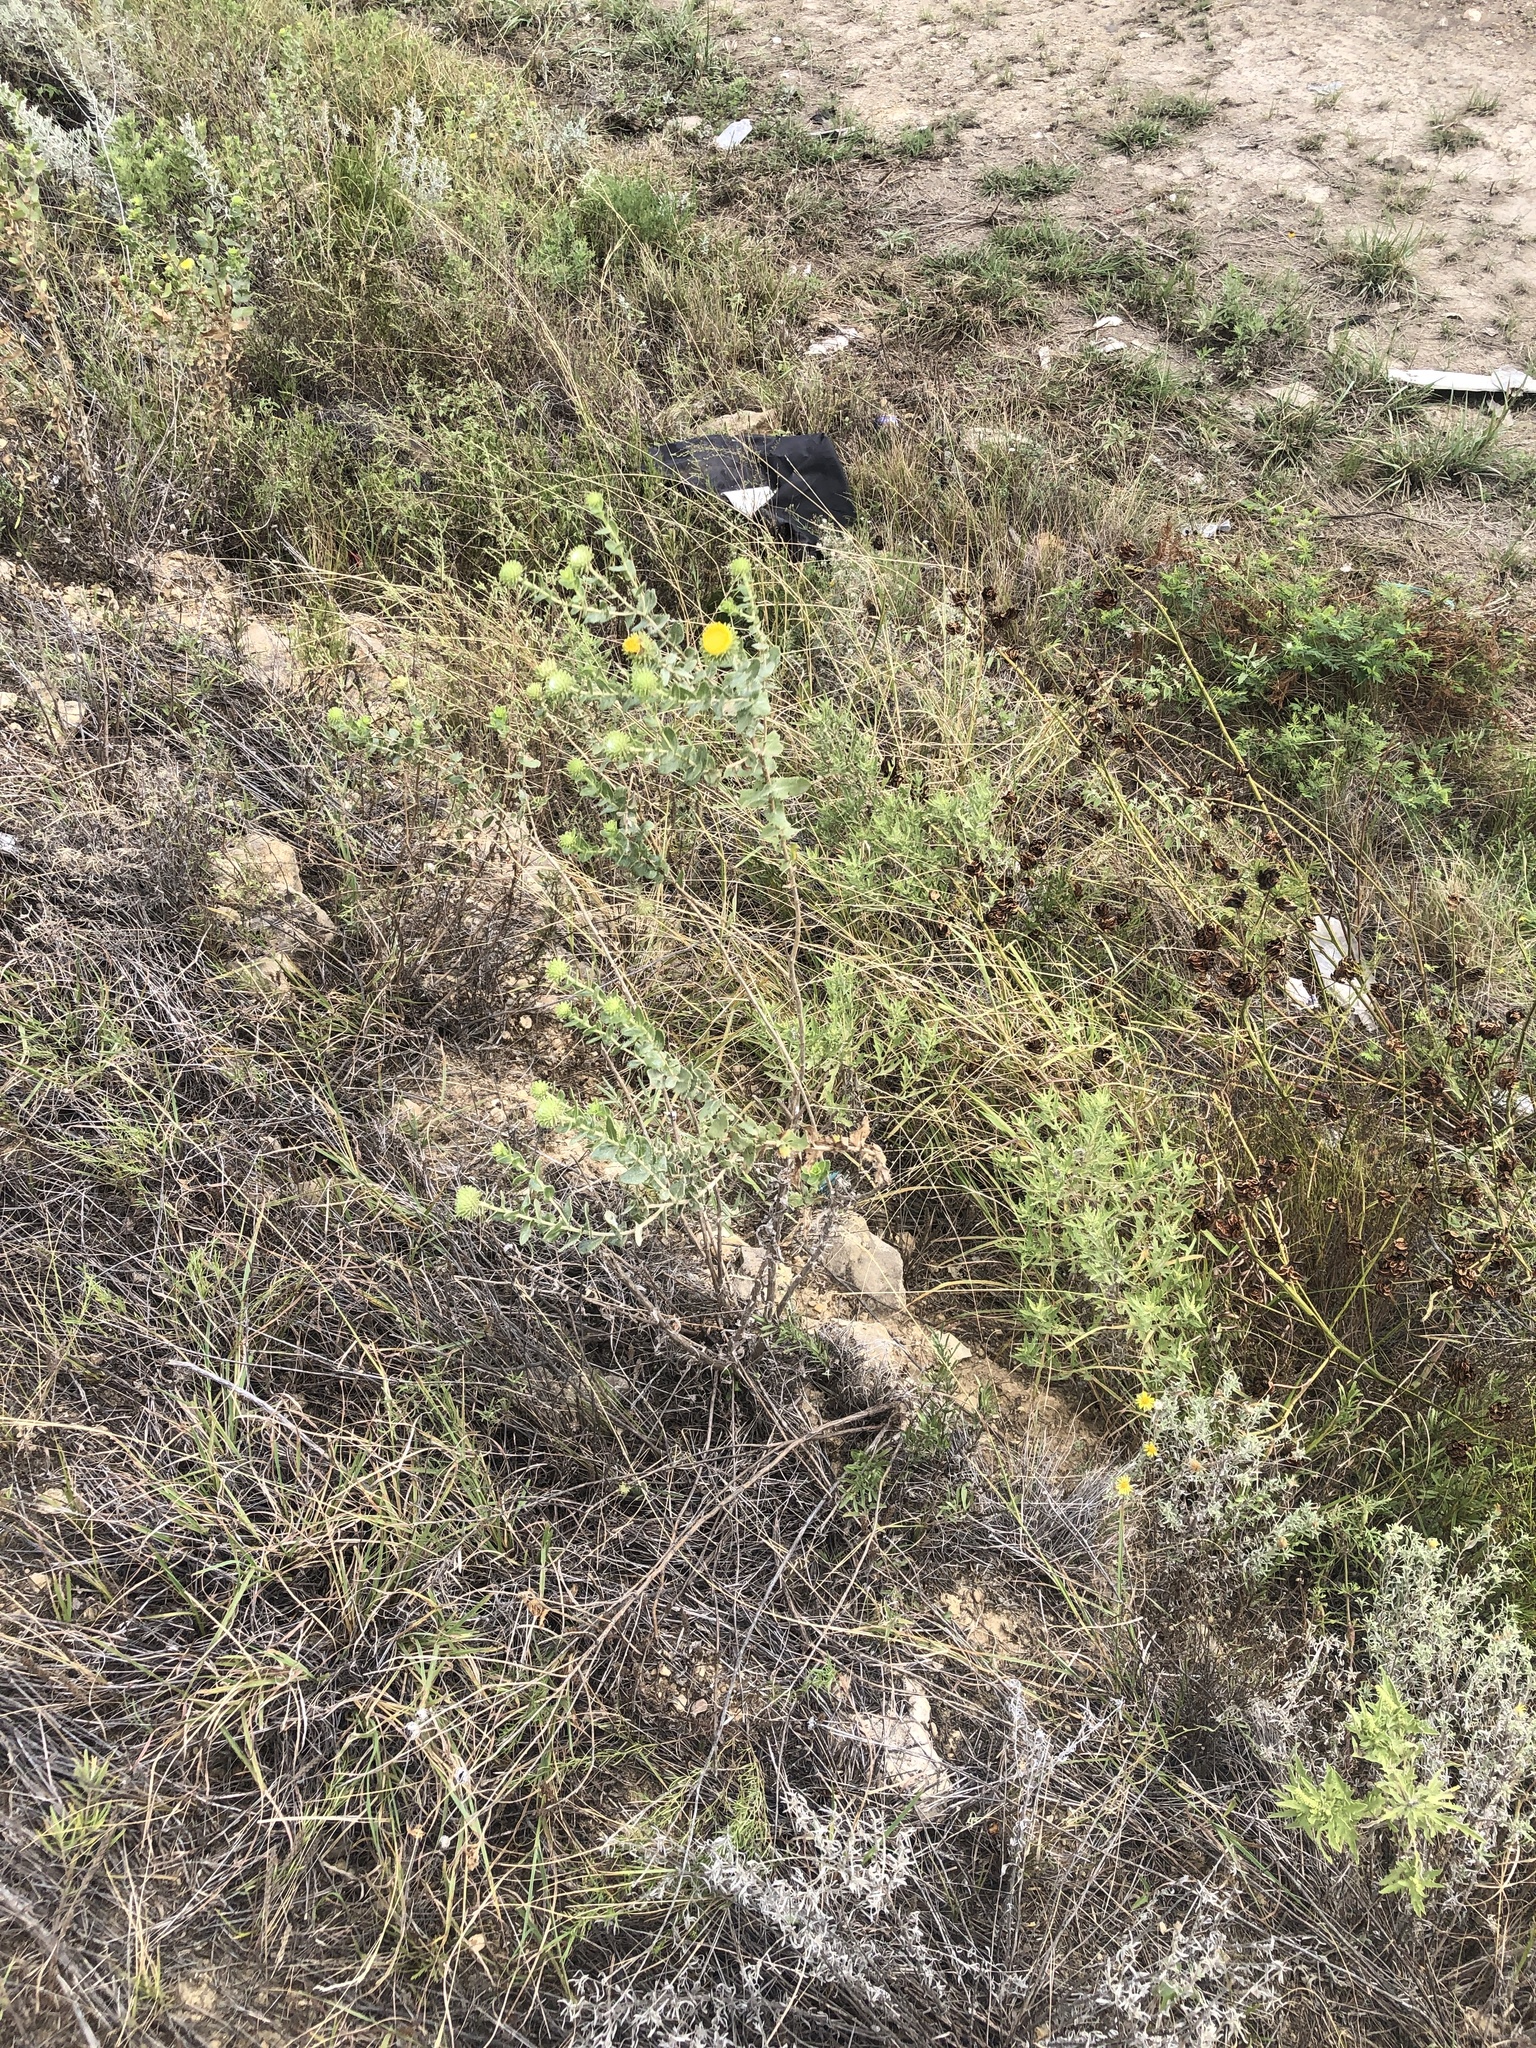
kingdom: Plantae
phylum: Tracheophyta
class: Magnoliopsida
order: Asterales
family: Asteraceae
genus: Grindelia
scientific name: Grindelia nuda
